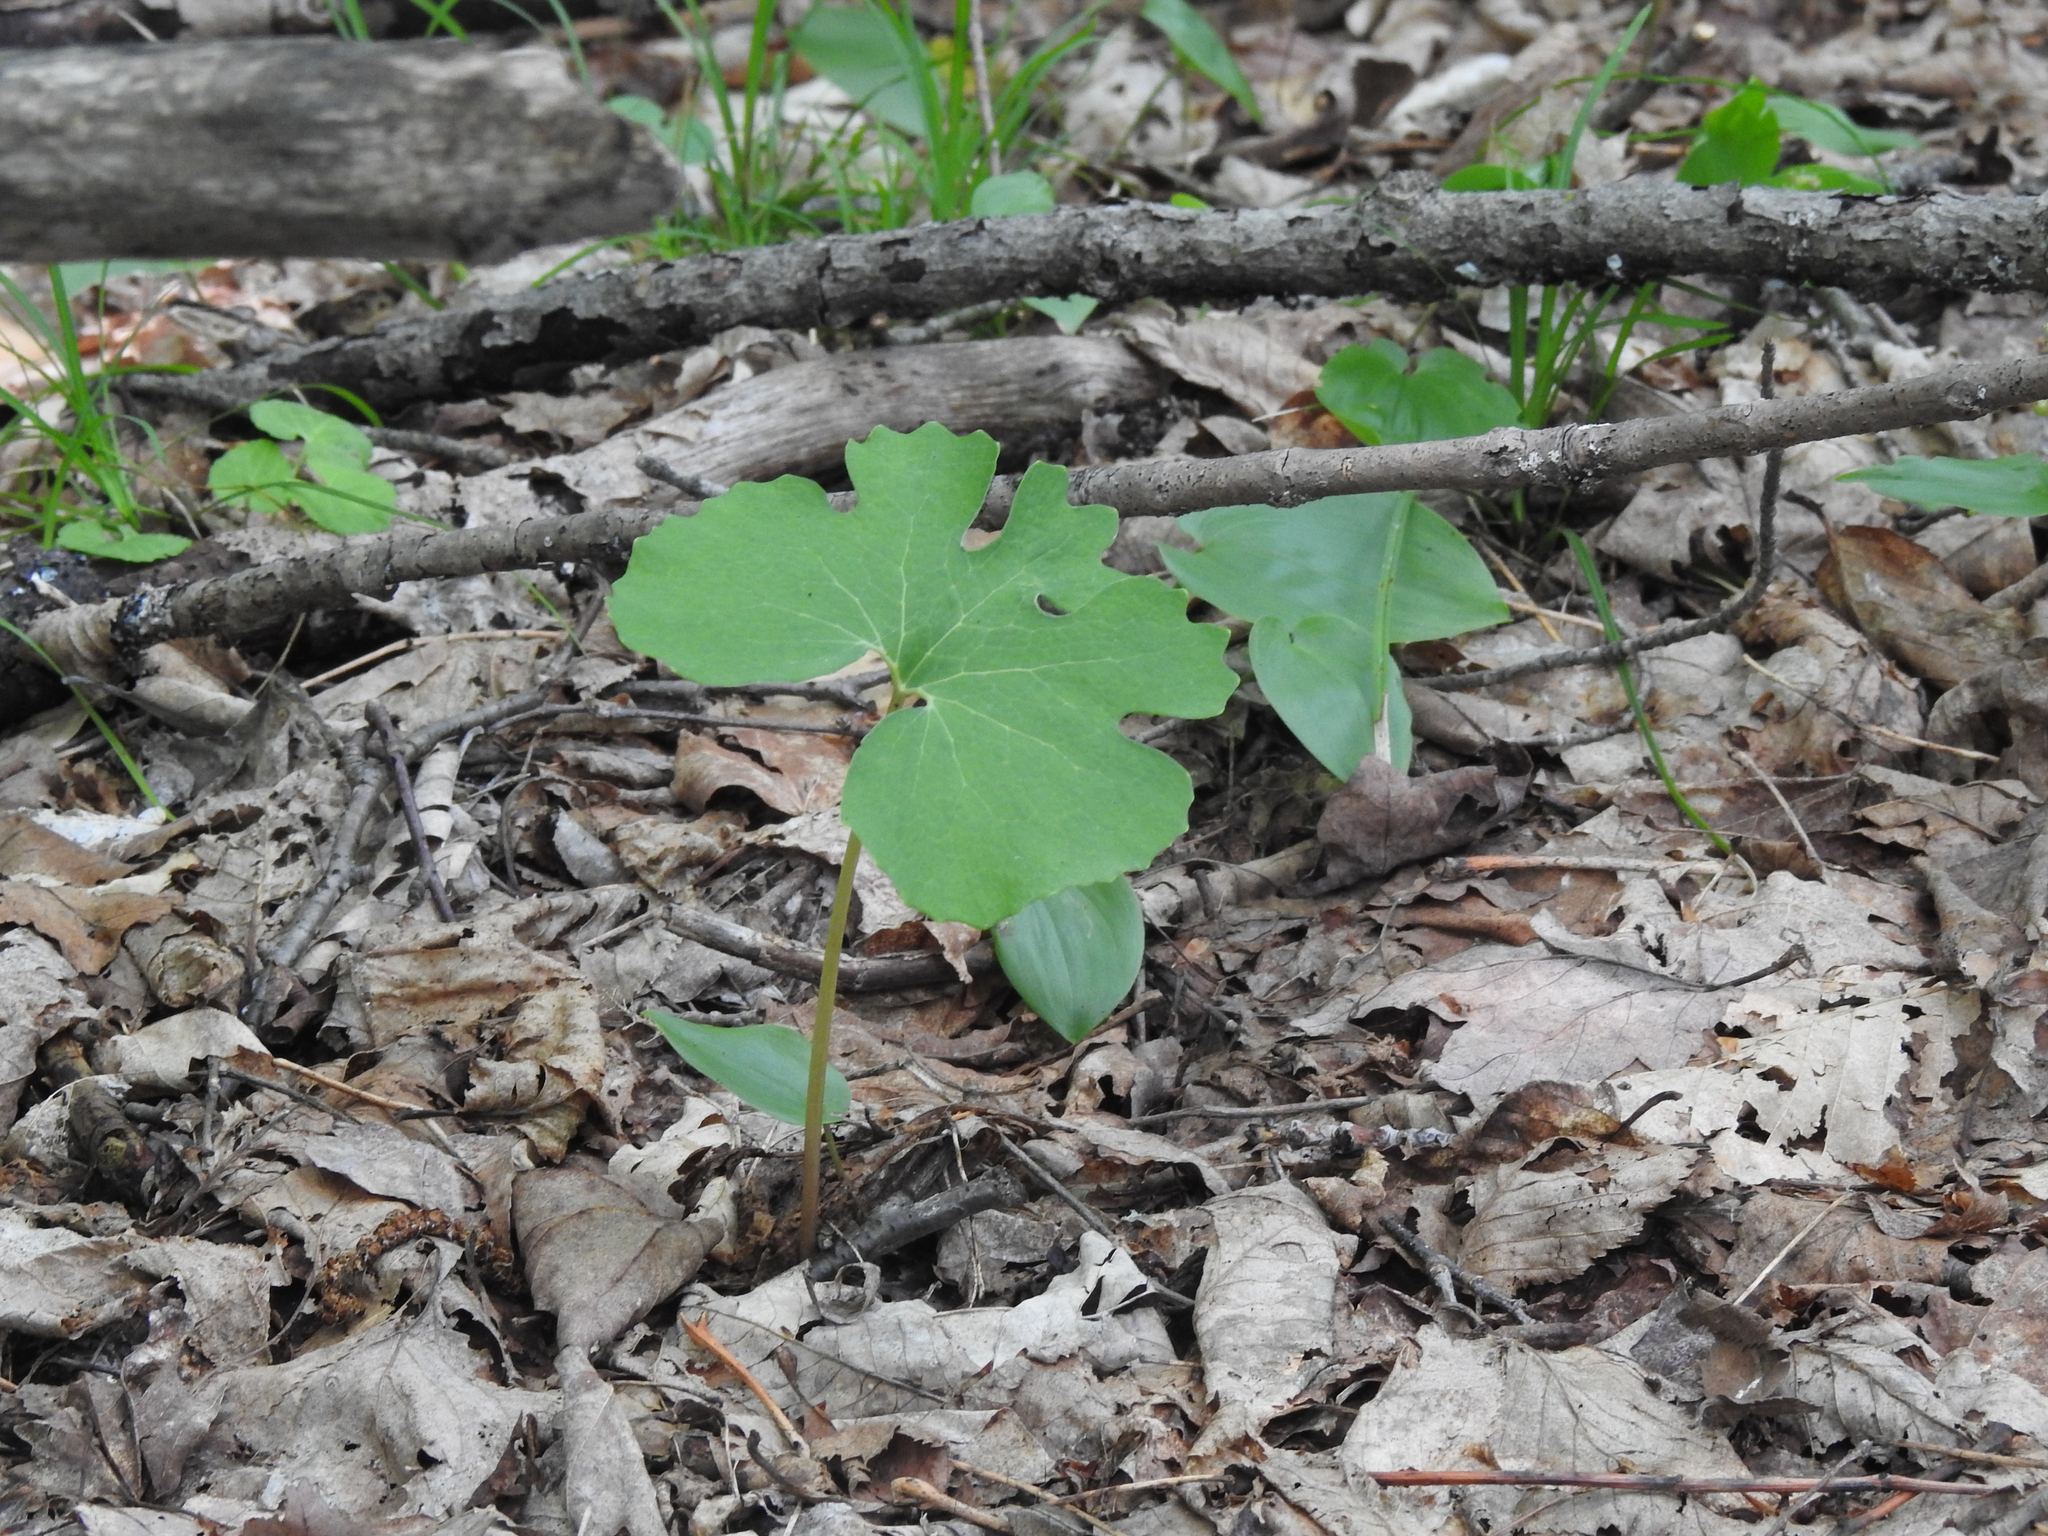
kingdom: Plantae
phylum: Tracheophyta
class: Magnoliopsida
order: Ranunculales
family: Papaveraceae
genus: Sanguinaria
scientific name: Sanguinaria canadensis
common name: Bloodroot
